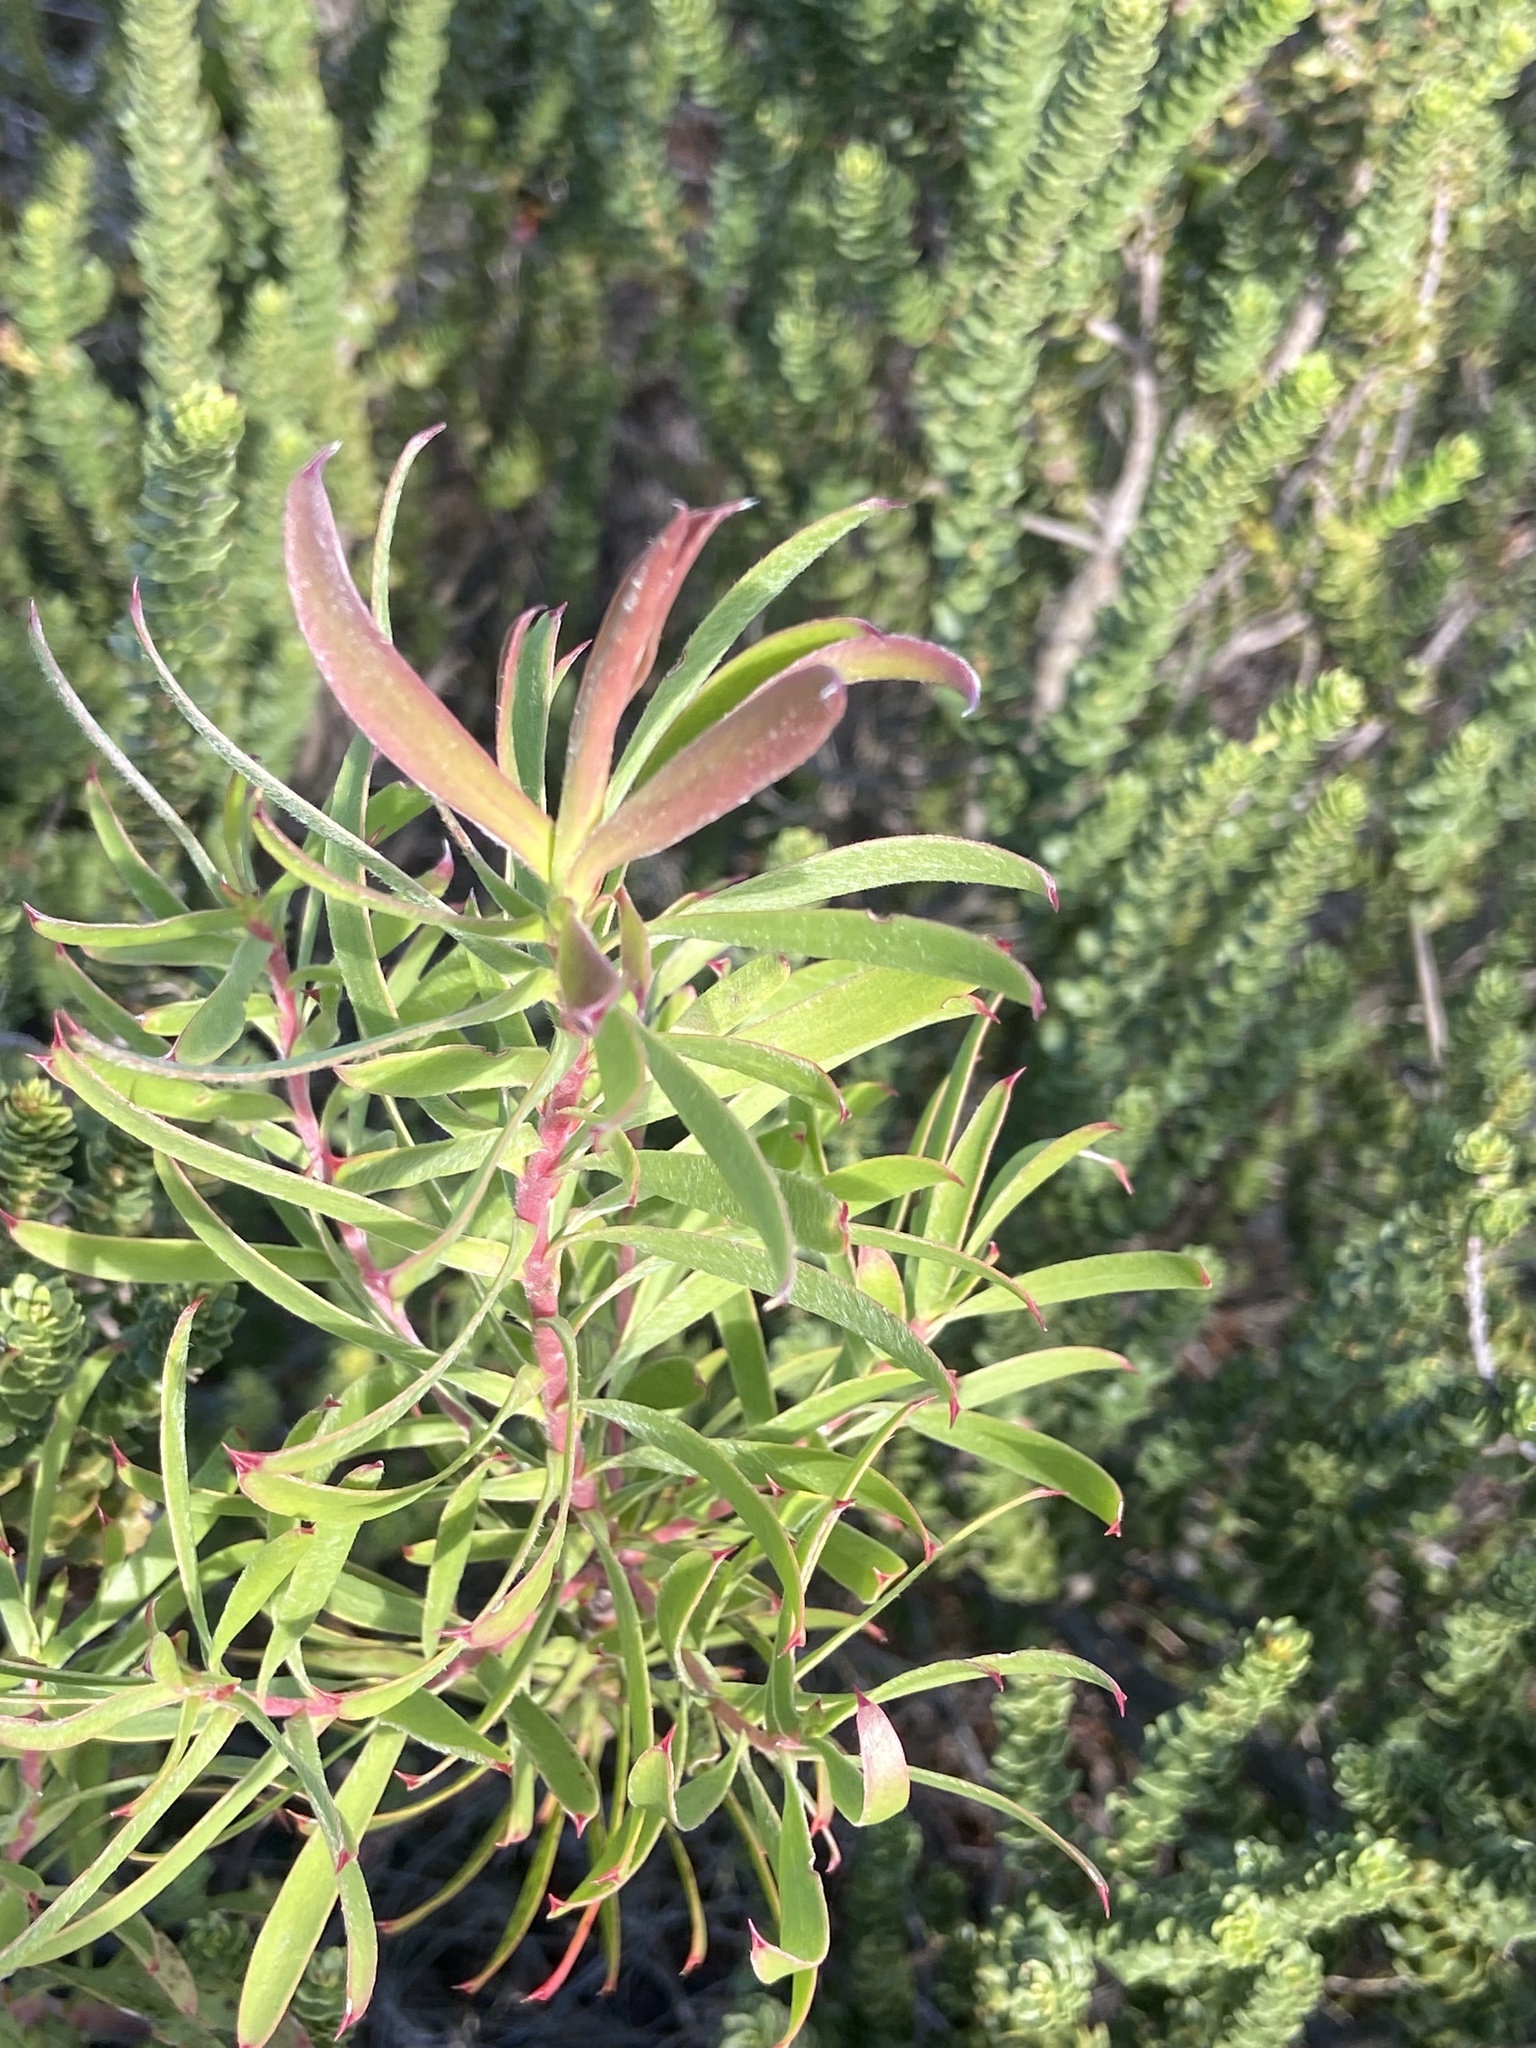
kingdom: Plantae
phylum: Tracheophyta
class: Magnoliopsida
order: Proteales
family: Proteaceae
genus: Leucadendron
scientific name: Leucadendron coniferum
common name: Dune conebush
